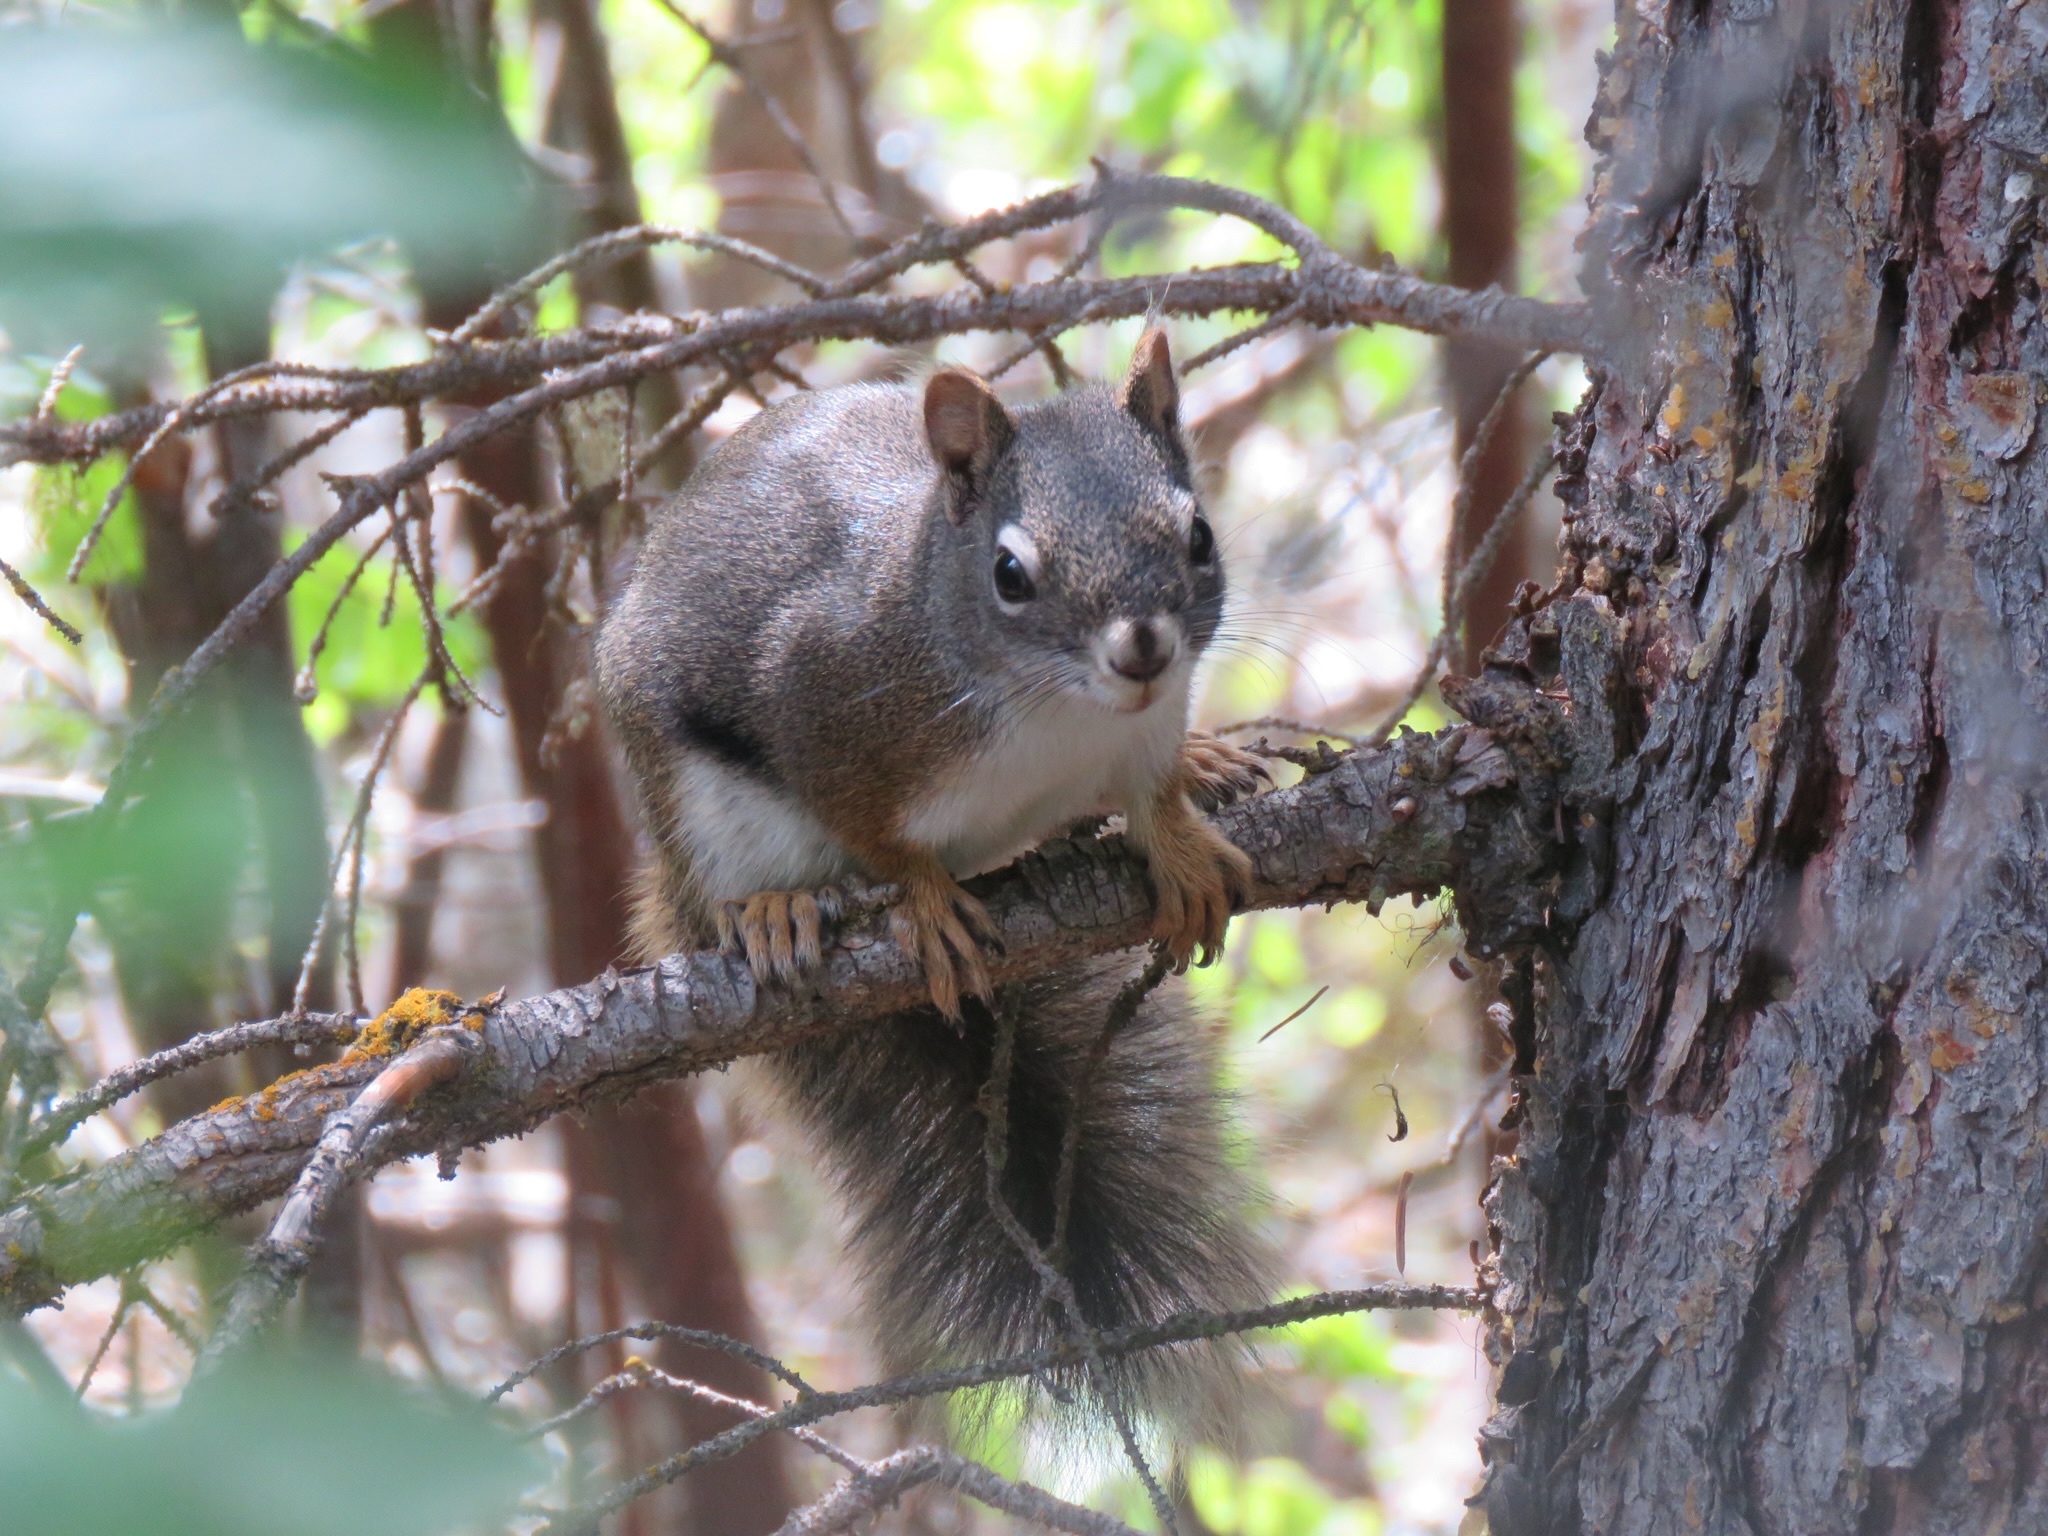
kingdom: Animalia
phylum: Chordata
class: Mammalia
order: Rodentia
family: Sciuridae
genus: Tamiasciurus
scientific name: Tamiasciurus hudsonicus
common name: Red squirrel
